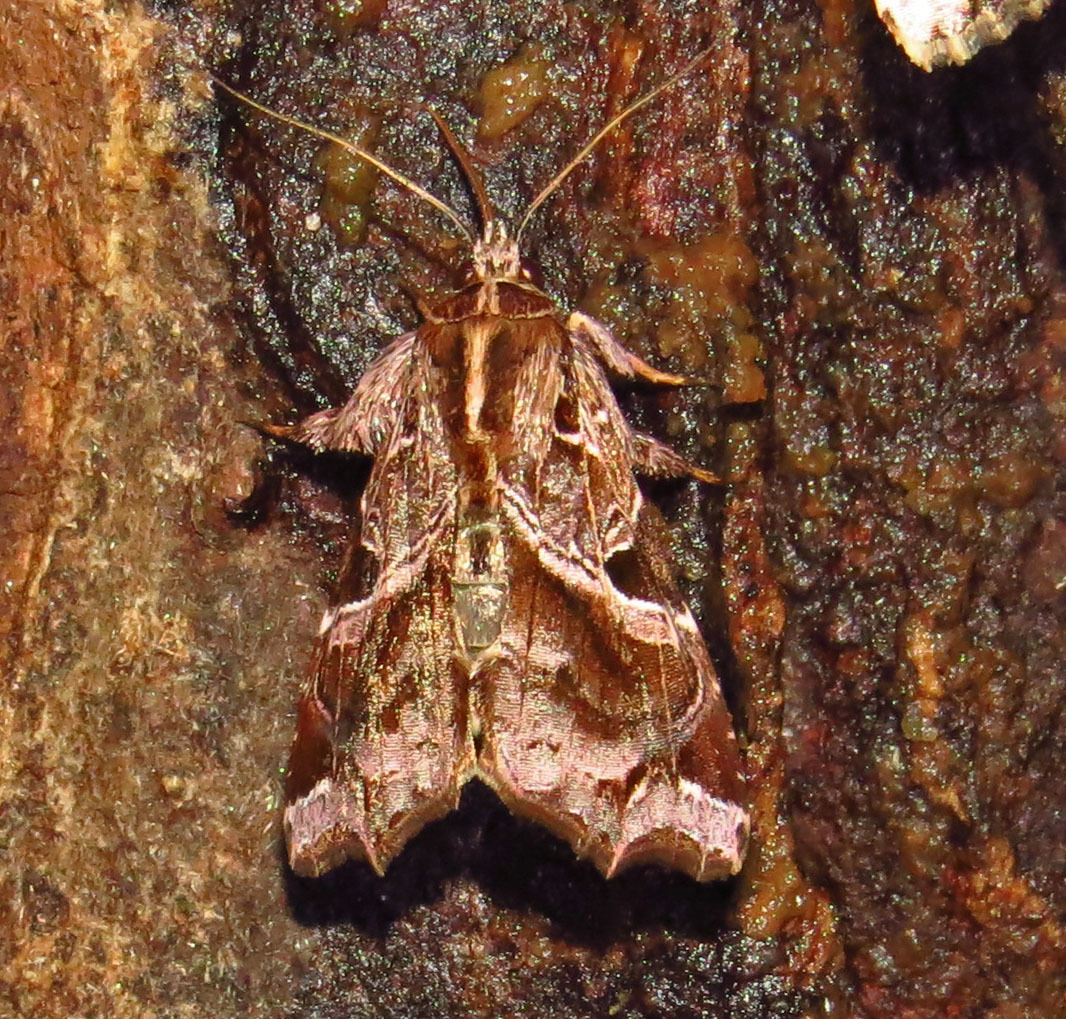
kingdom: Animalia
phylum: Arthropoda
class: Insecta
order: Lepidoptera
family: Noctuidae
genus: Callopistria
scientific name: Callopistria floridensis
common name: Florida fern moth
